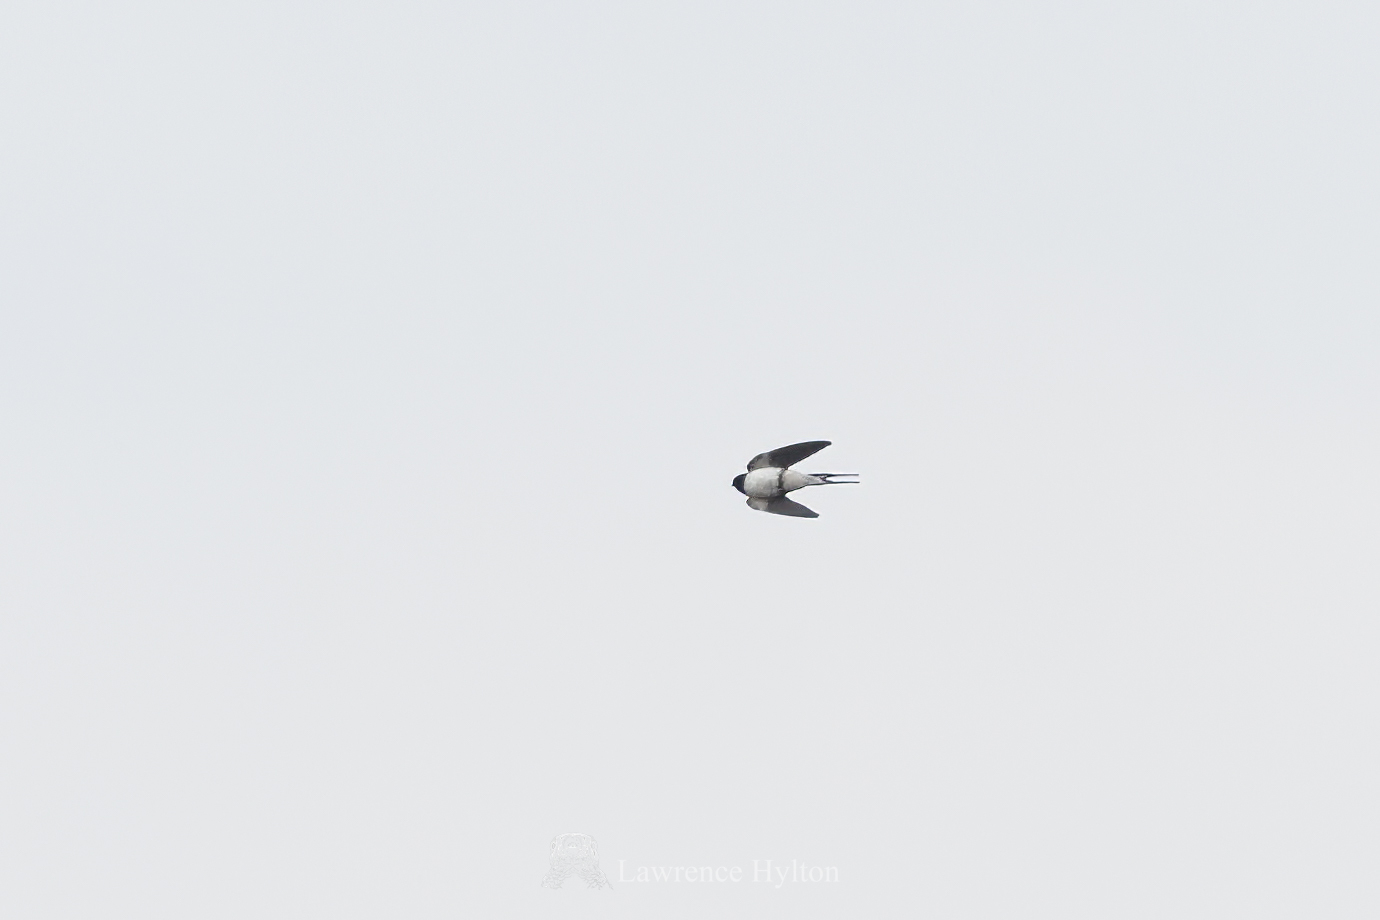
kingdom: Animalia
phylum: Chordata
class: Aves
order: Passeriformes
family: Hirundinidae
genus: Hirundo
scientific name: Hirundo rustica
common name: Barn swallow
